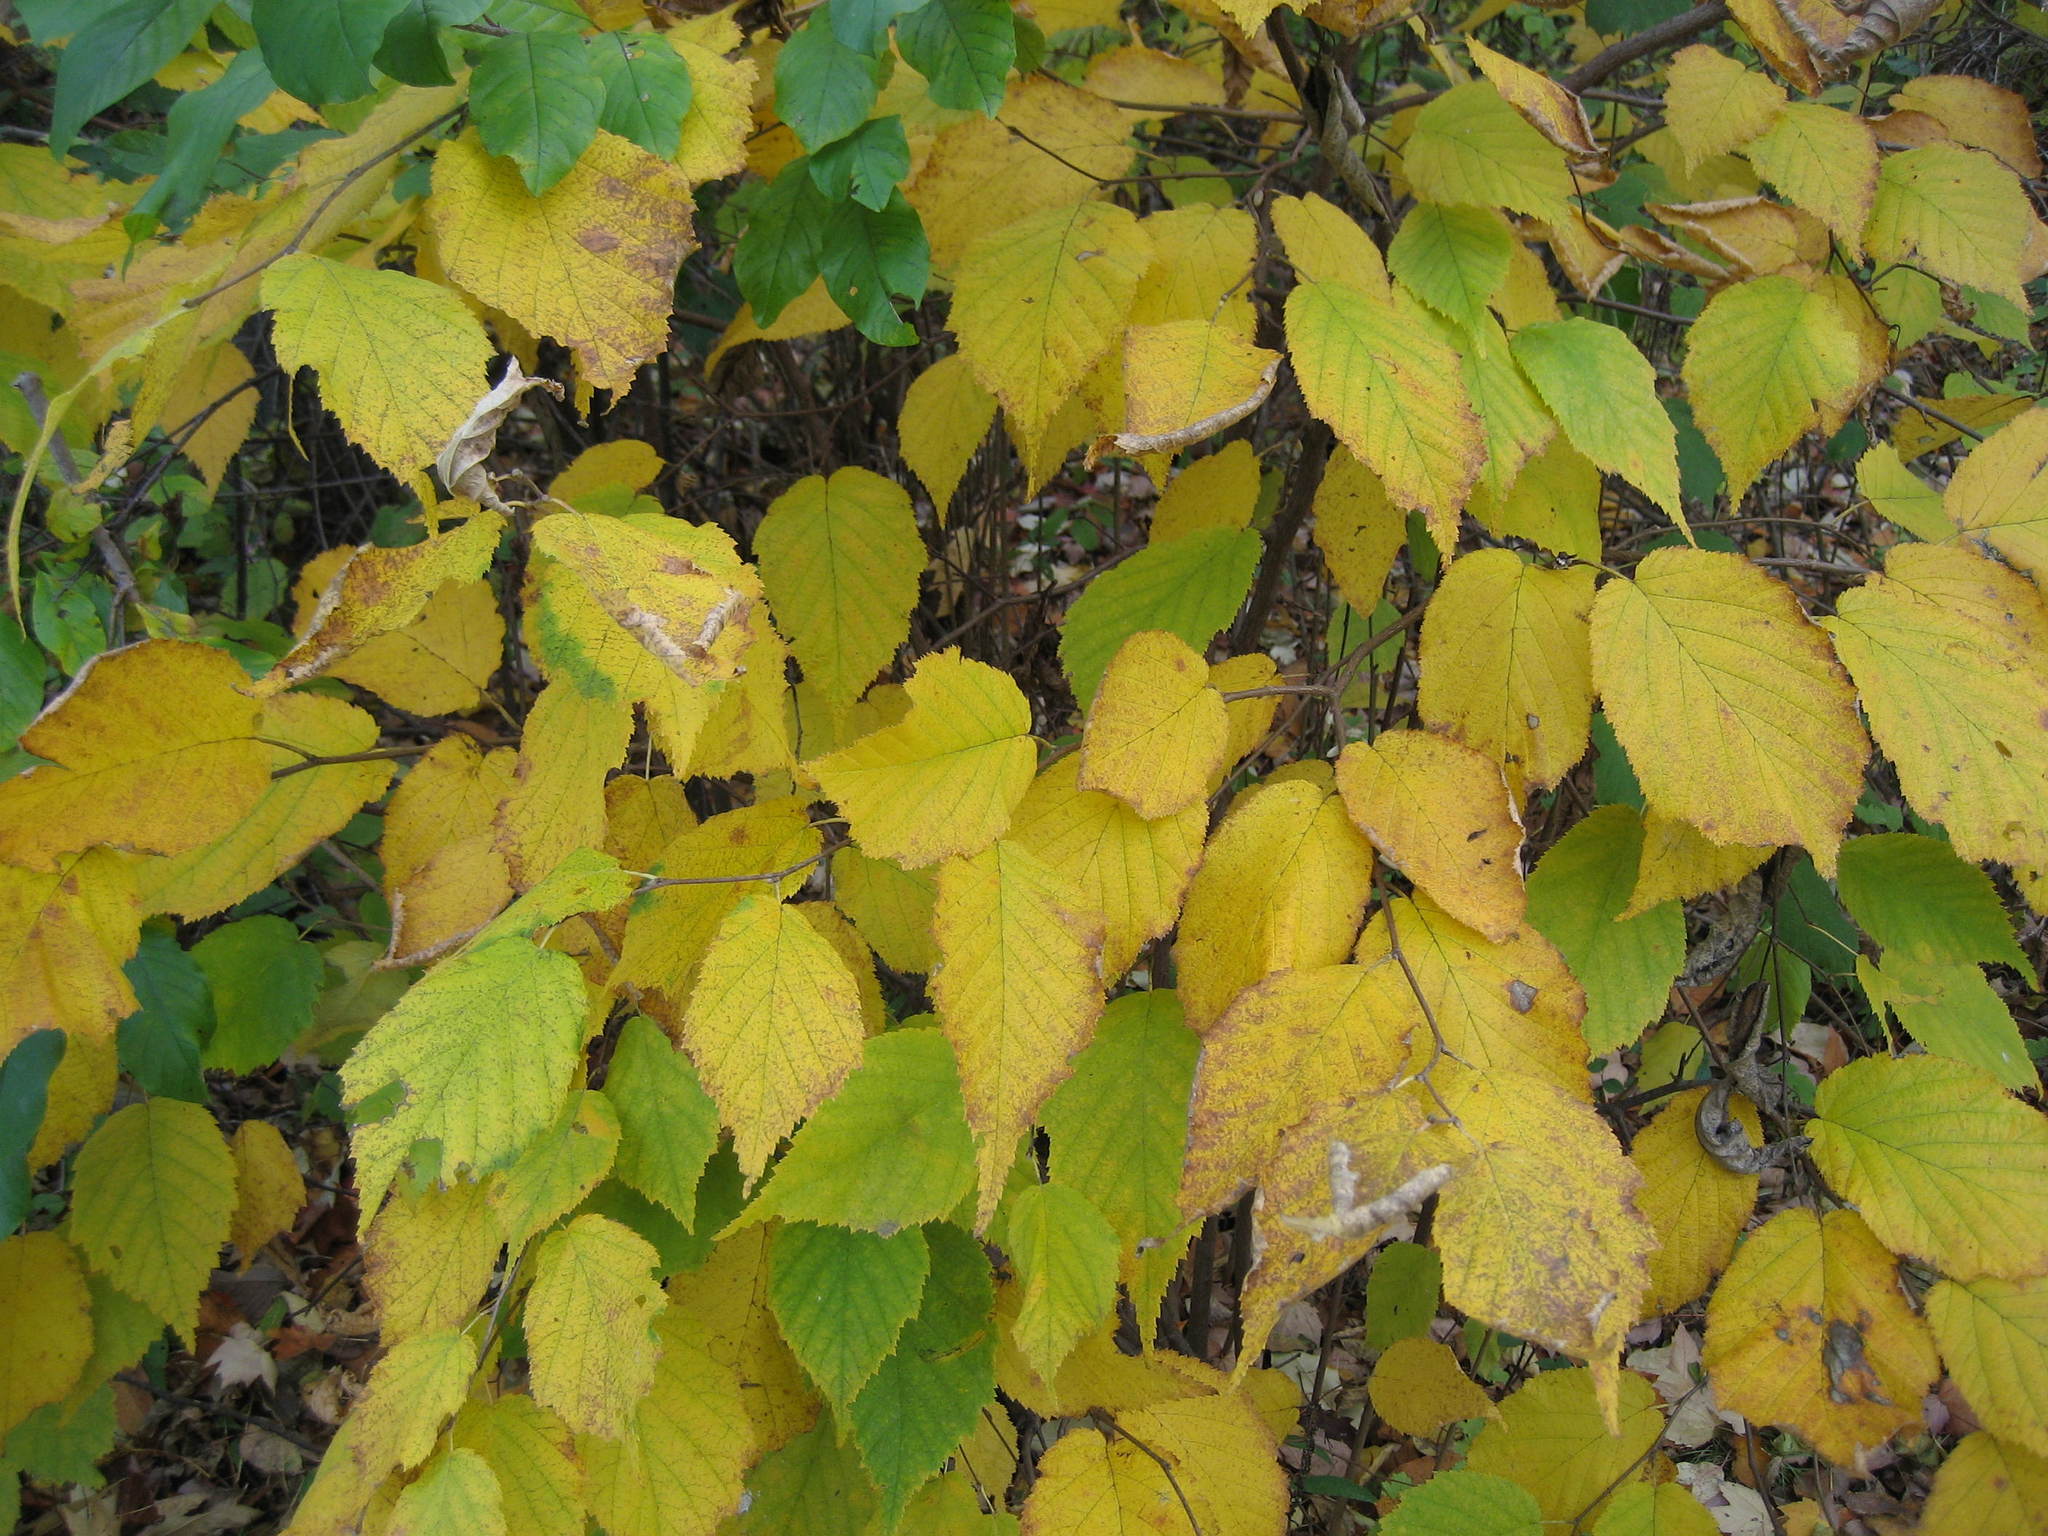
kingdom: Plantae
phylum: Tracheophyta
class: Magnoliopsida
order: Fagales
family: Betulaceae
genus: Corylus
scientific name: Corylus cornuta
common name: Beaked hazel
